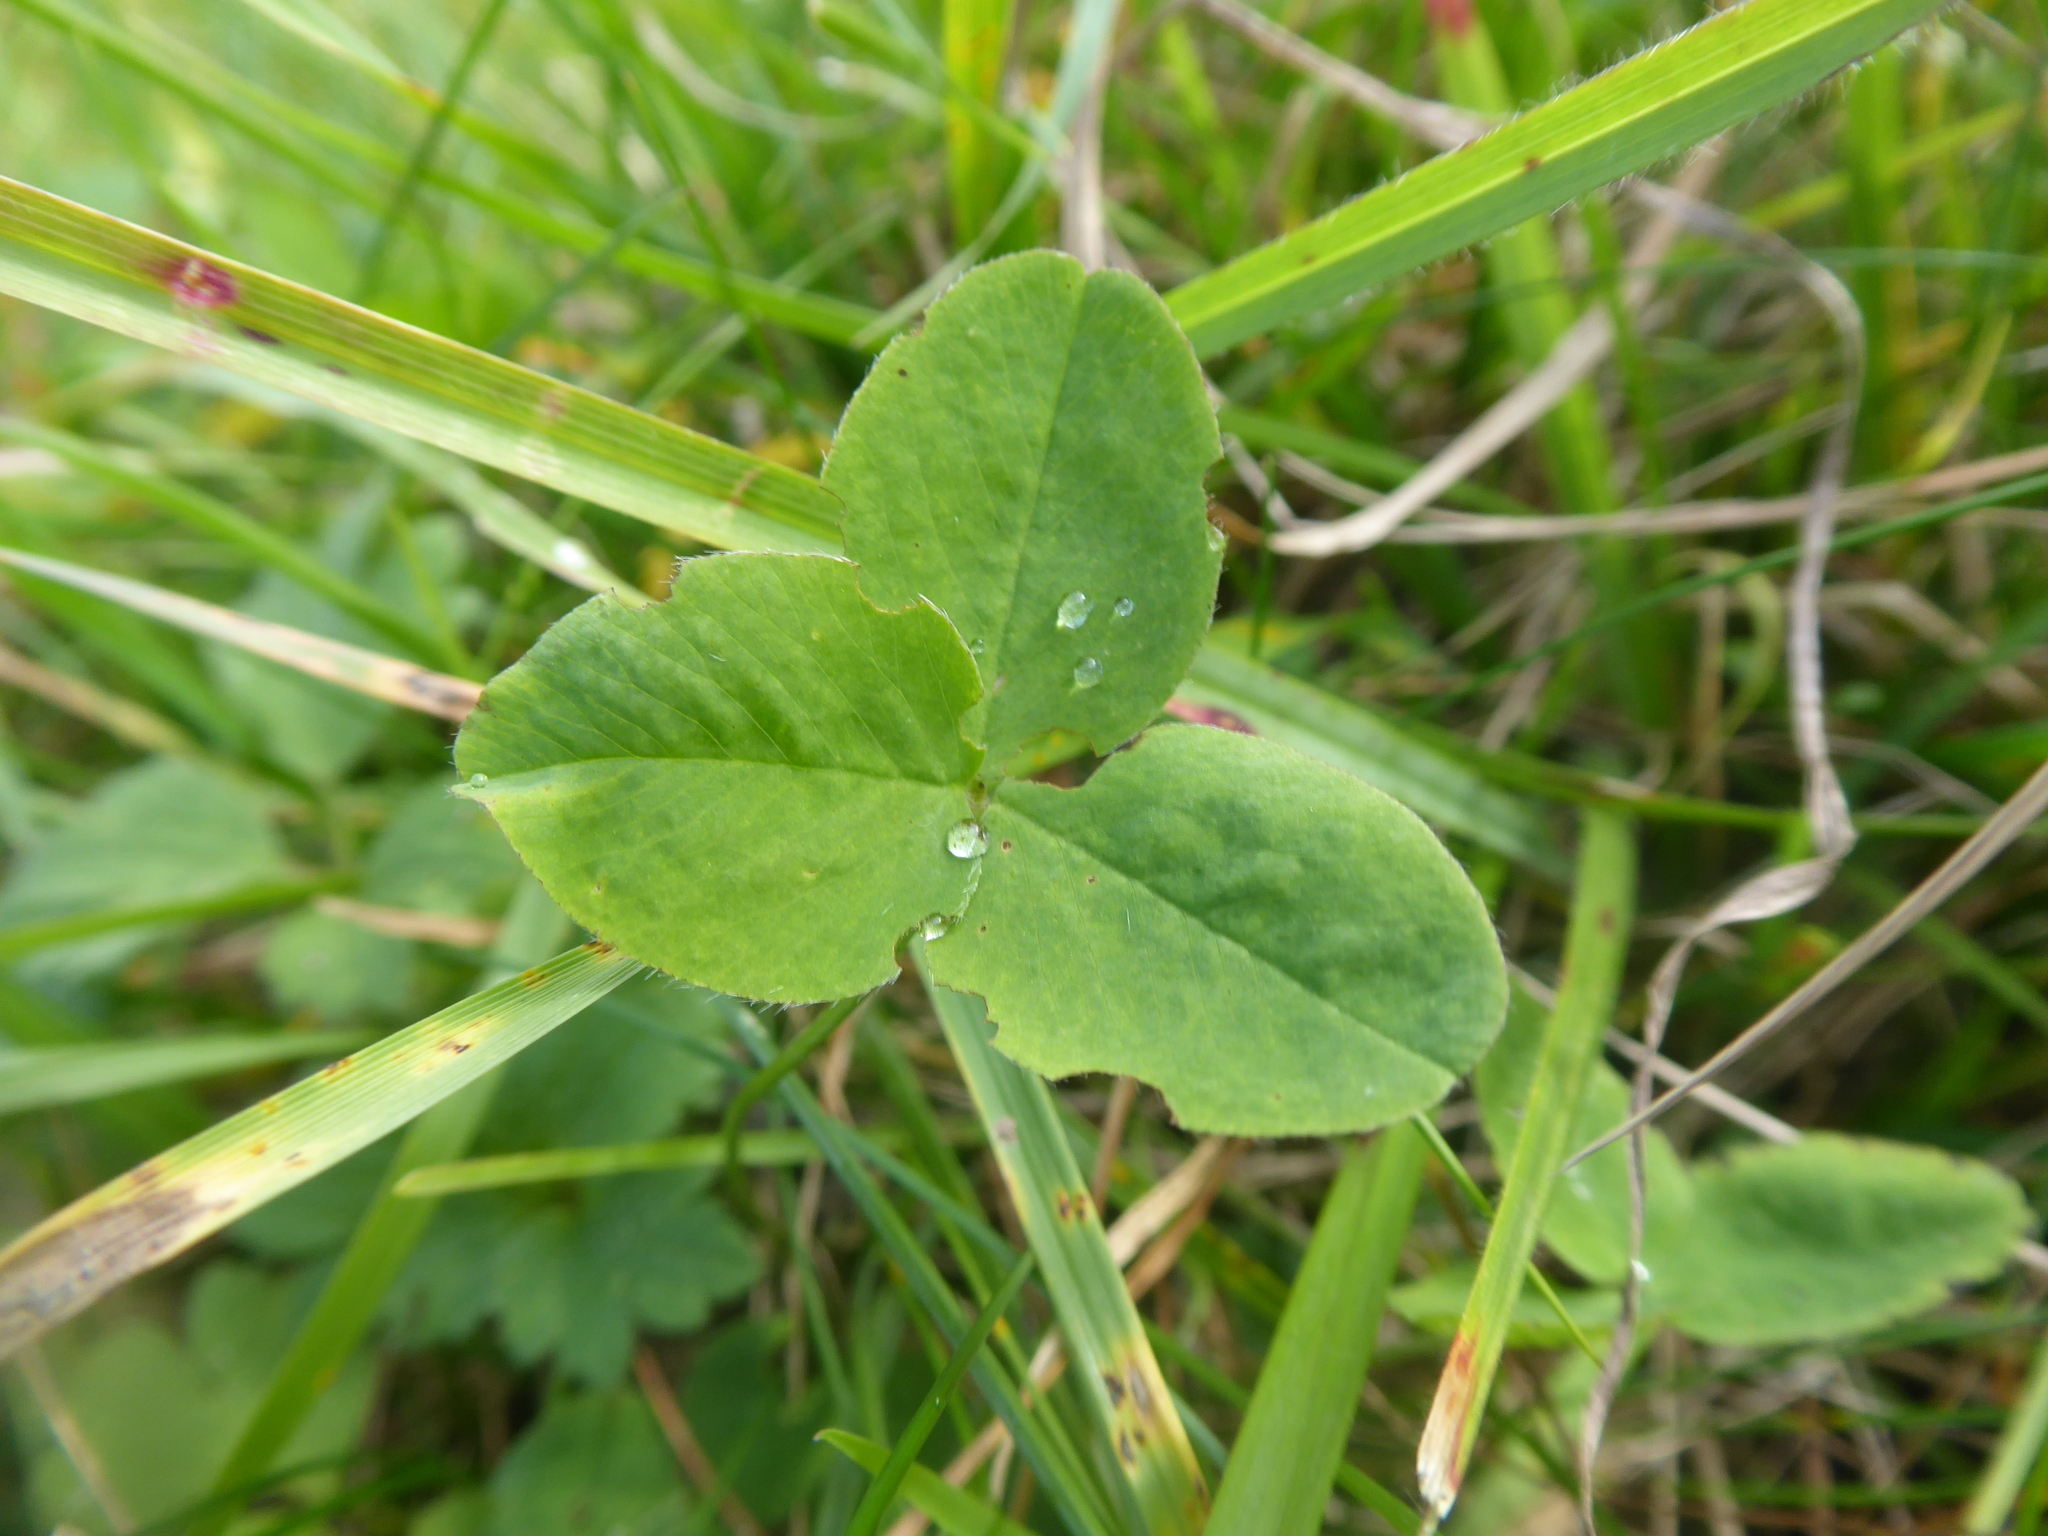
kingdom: Plantae
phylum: Tracheophyta
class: Magnoliopsida
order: Fabales
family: Fabaceae
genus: Trifolium
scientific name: Trifolium pratense
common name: Red clover
